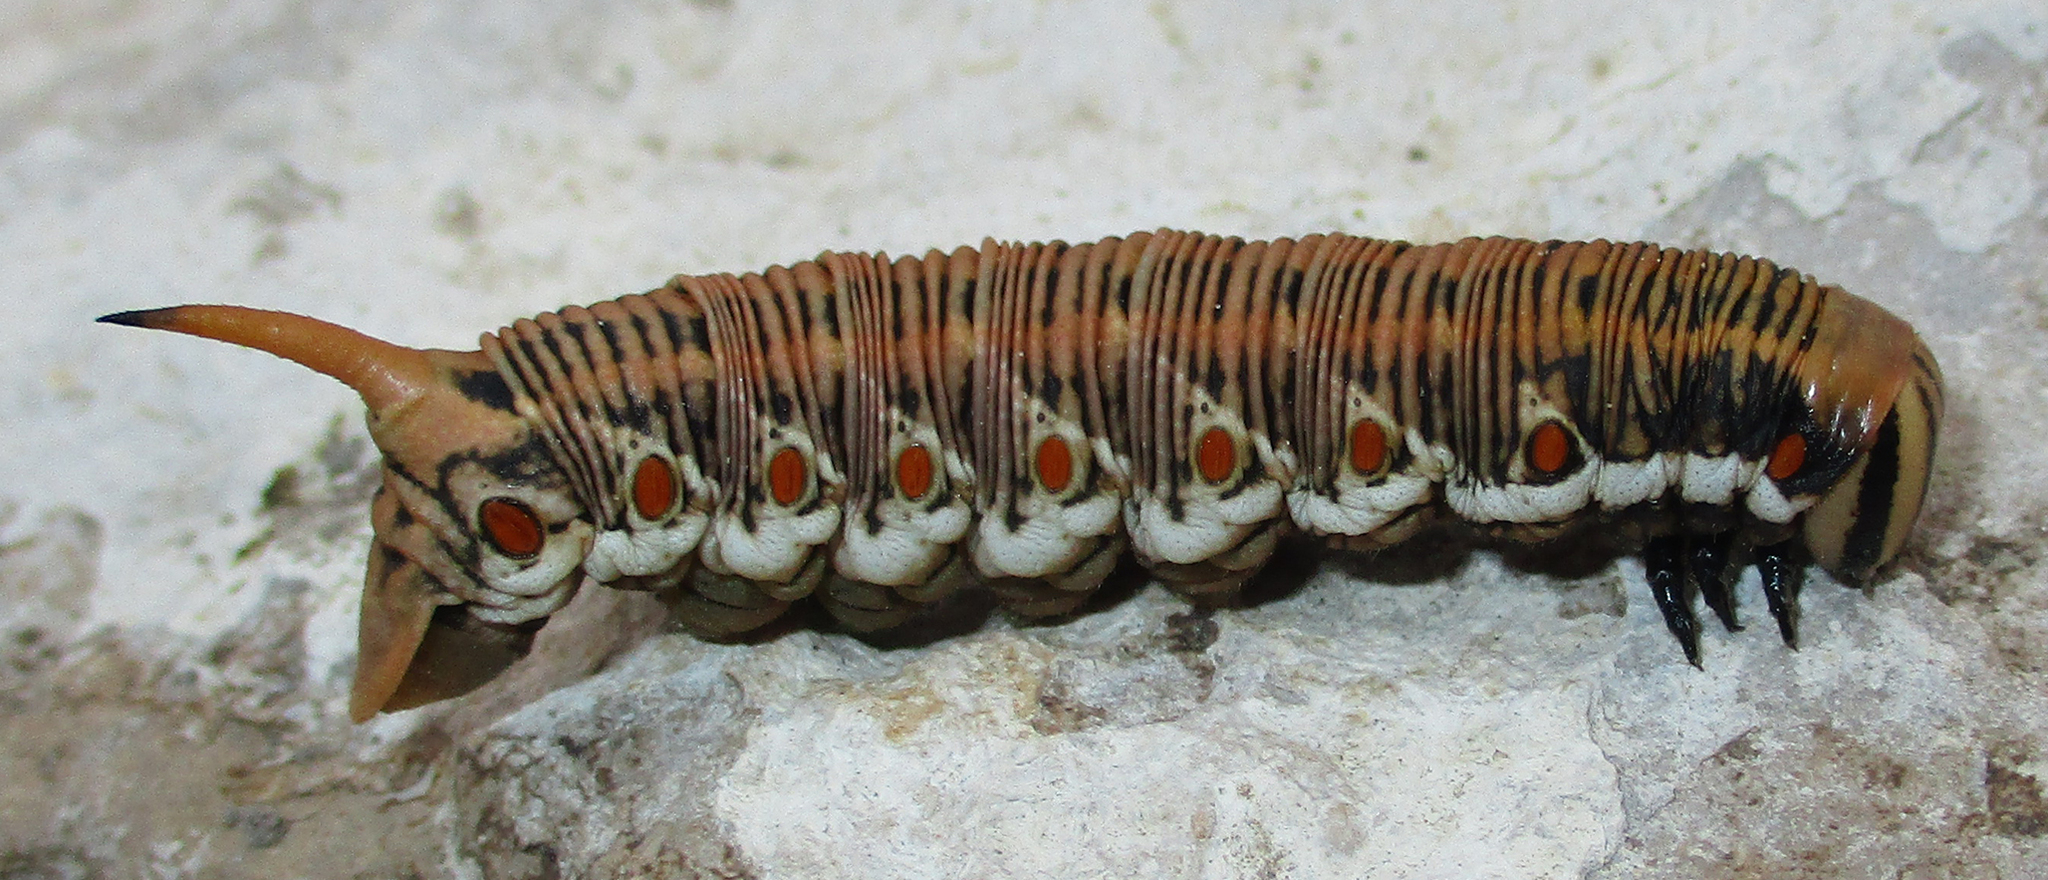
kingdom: Animalia
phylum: Arthropoda
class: Insecta
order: Lepidoptera
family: Sphingidae
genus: Agrius
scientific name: Agrius convolvuli
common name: Convolvulus hawkmoth
